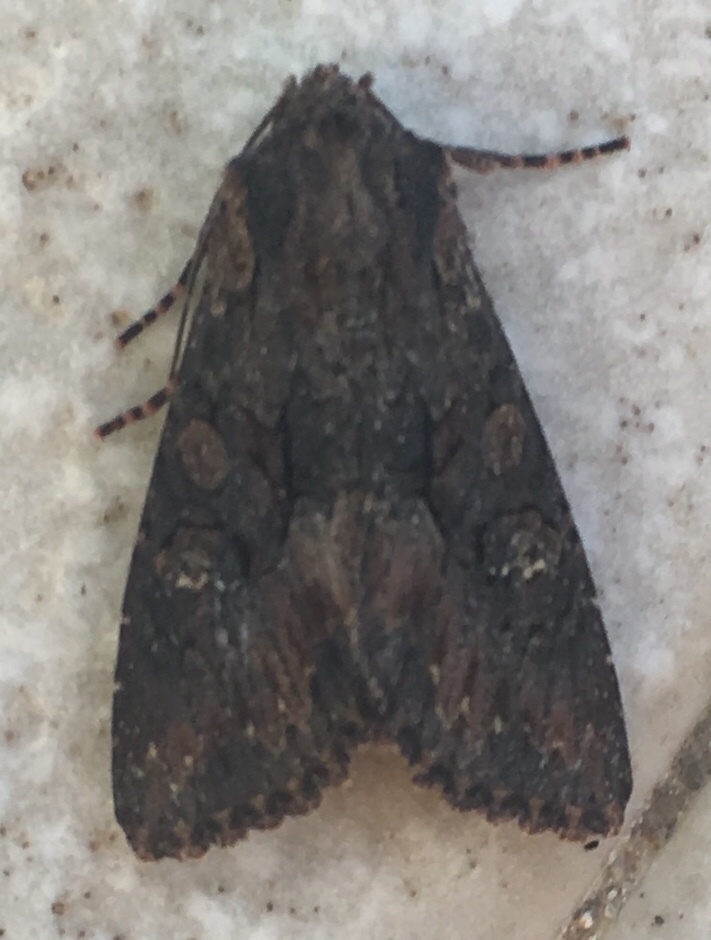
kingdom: Animalia
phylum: Arthropoda
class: Insecta
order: Lepidoptera
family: Noctuidae
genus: Aporophyla
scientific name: Aporophyla nigra
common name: Black rustic
